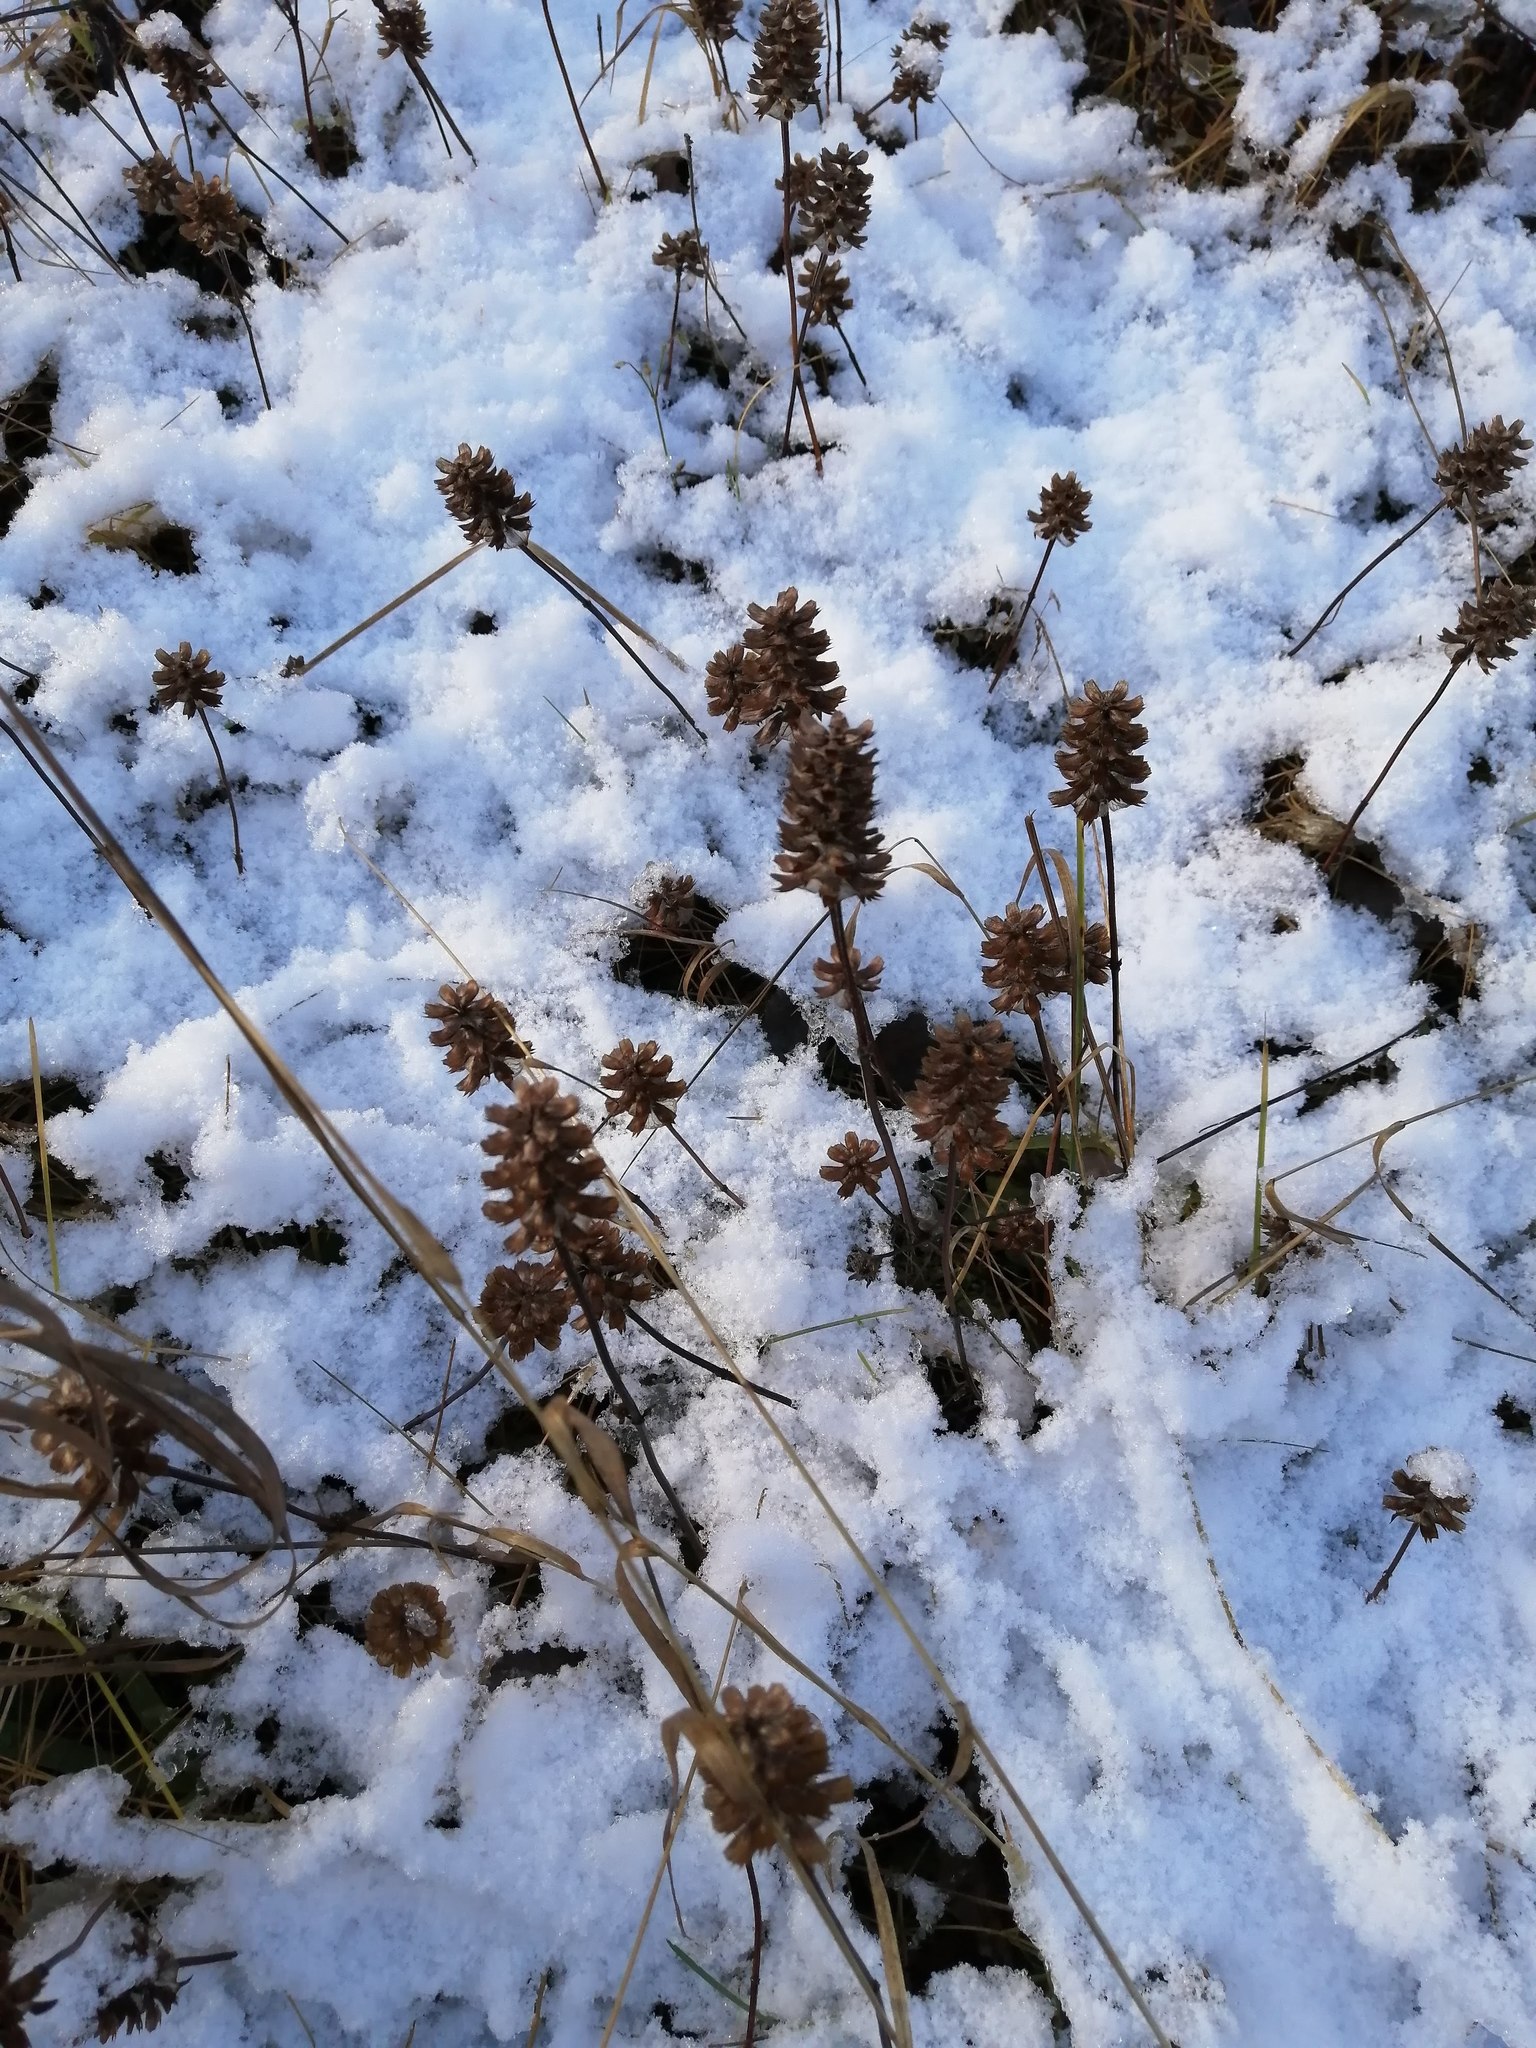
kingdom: Plantae
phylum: Tracheophyta
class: Magnoliopsida
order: Lamiales
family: Lamiaceae
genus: Prunella
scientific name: Prunella vulgaris
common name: Heal-all
